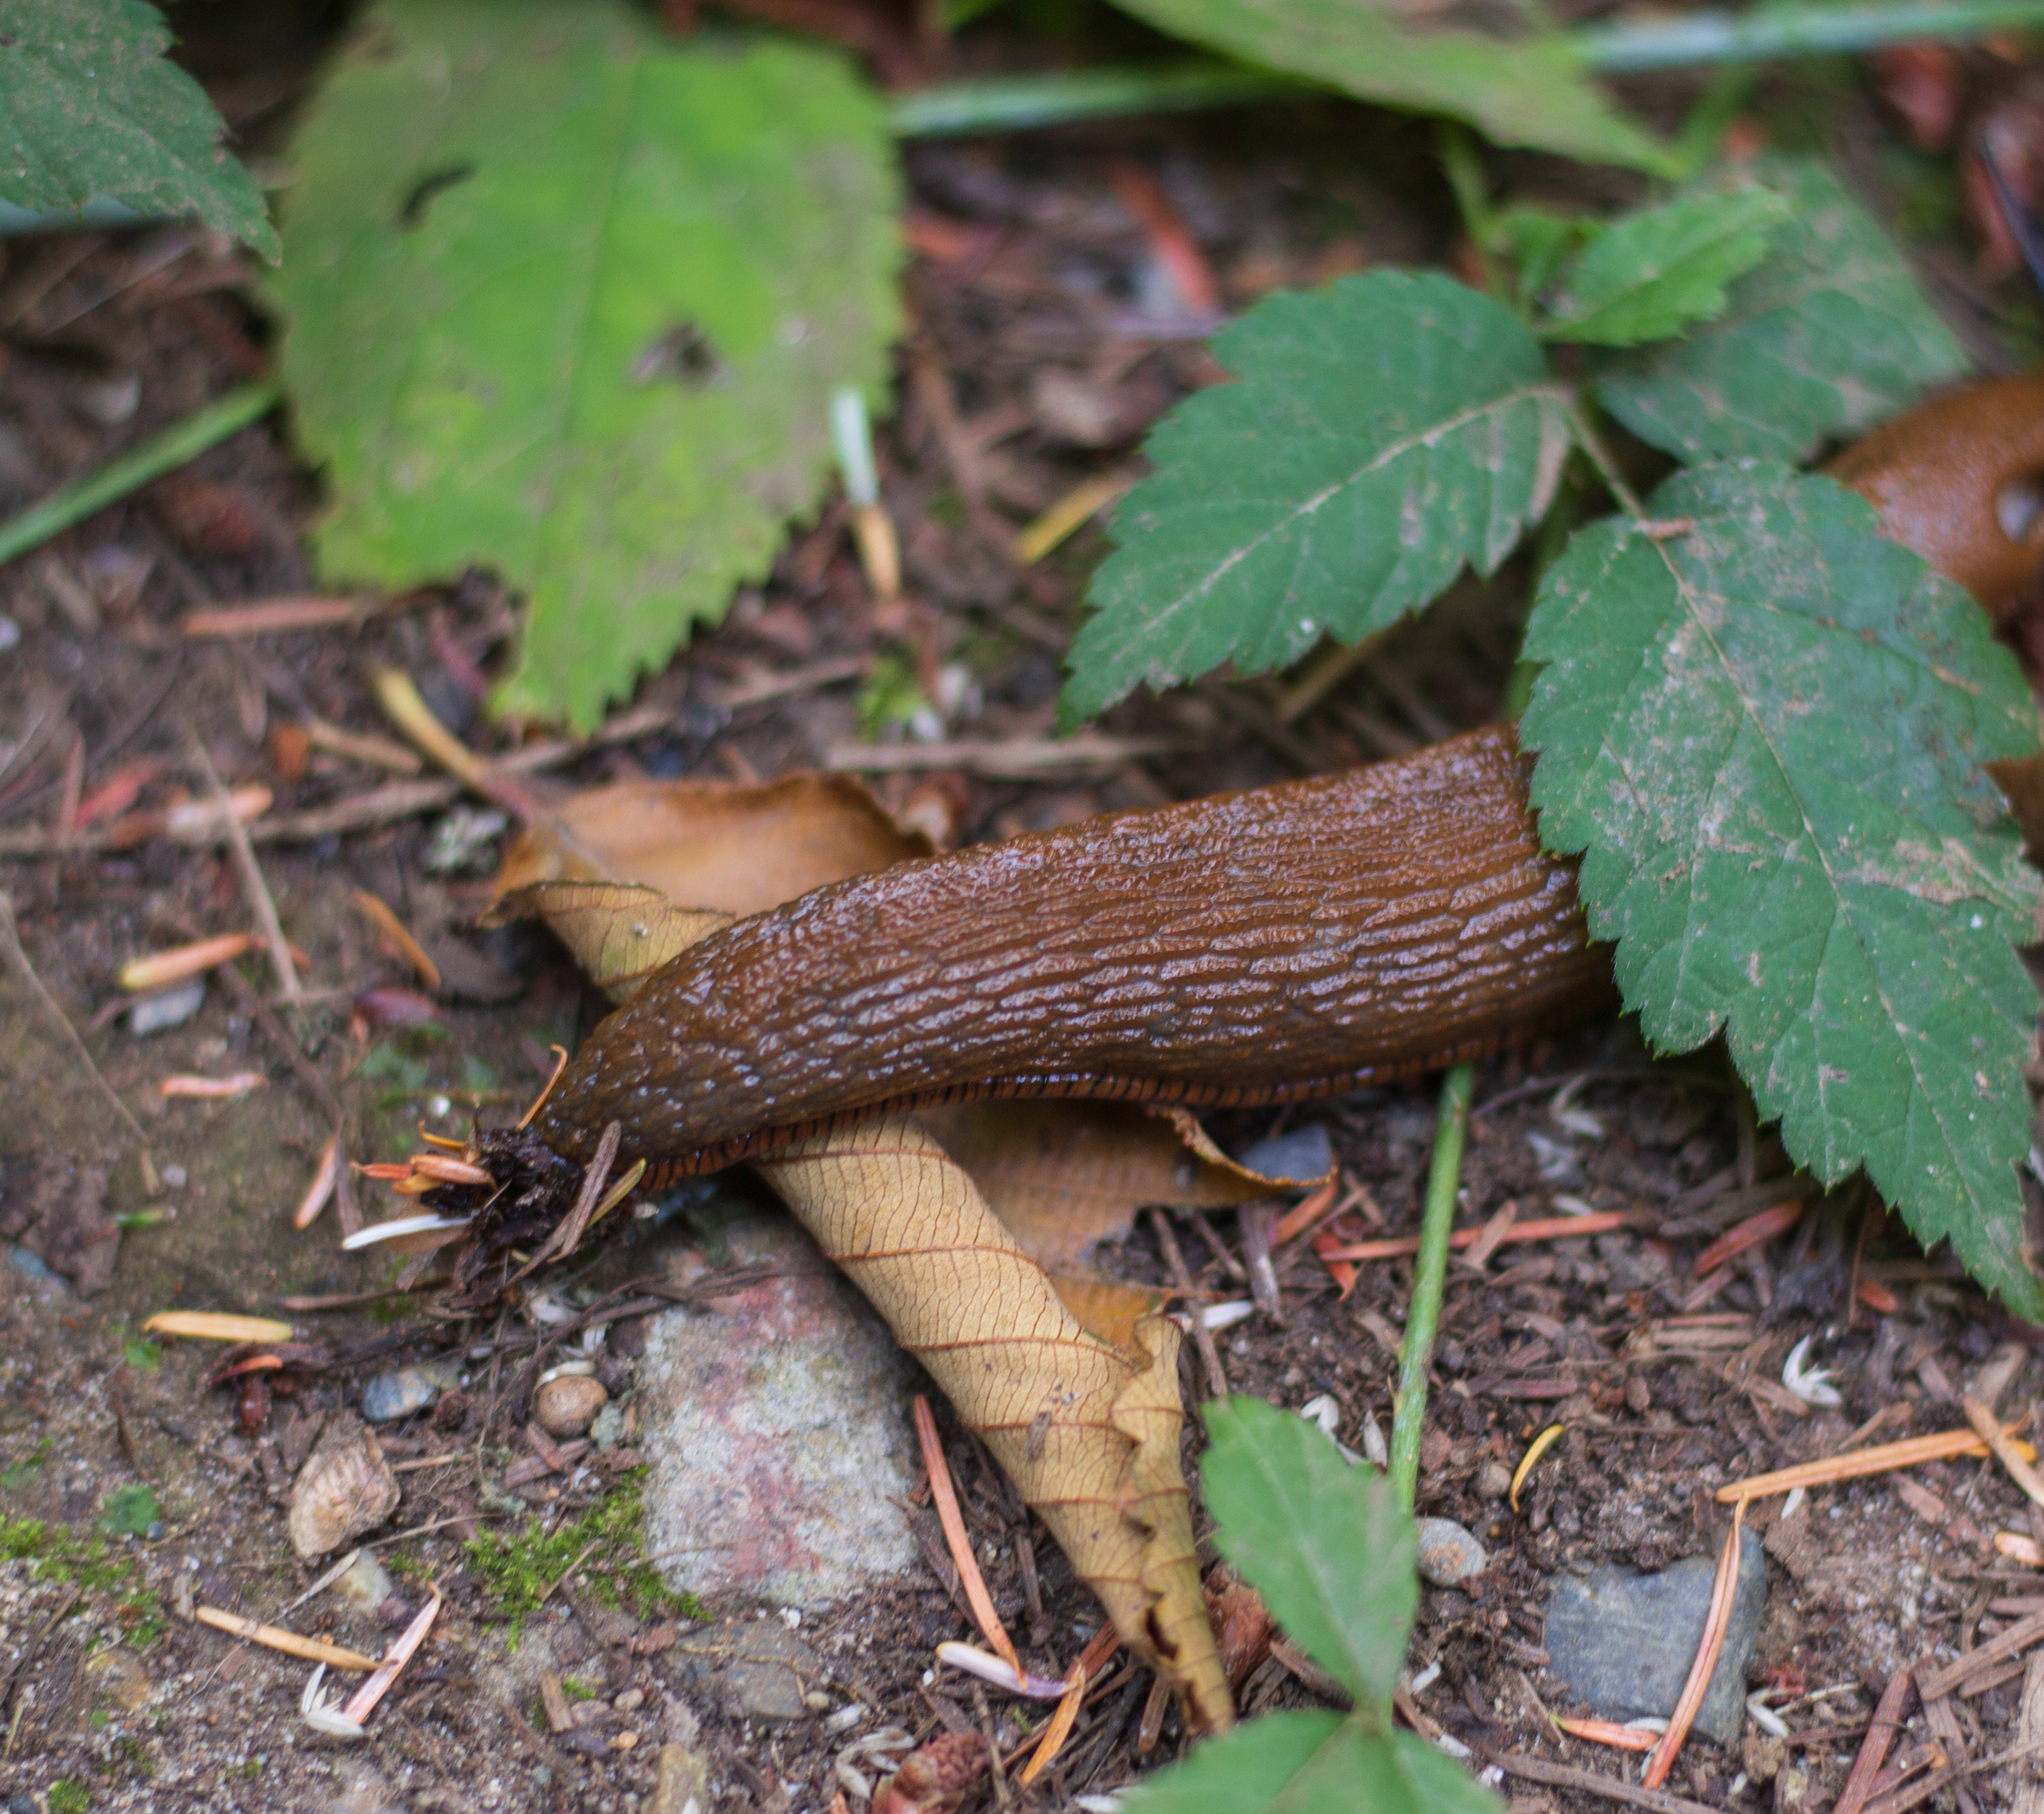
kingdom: Animalia
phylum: Mollusca
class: Gastropoda
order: Stylommatophora
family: Arionidae
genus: Arion
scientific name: Arion
